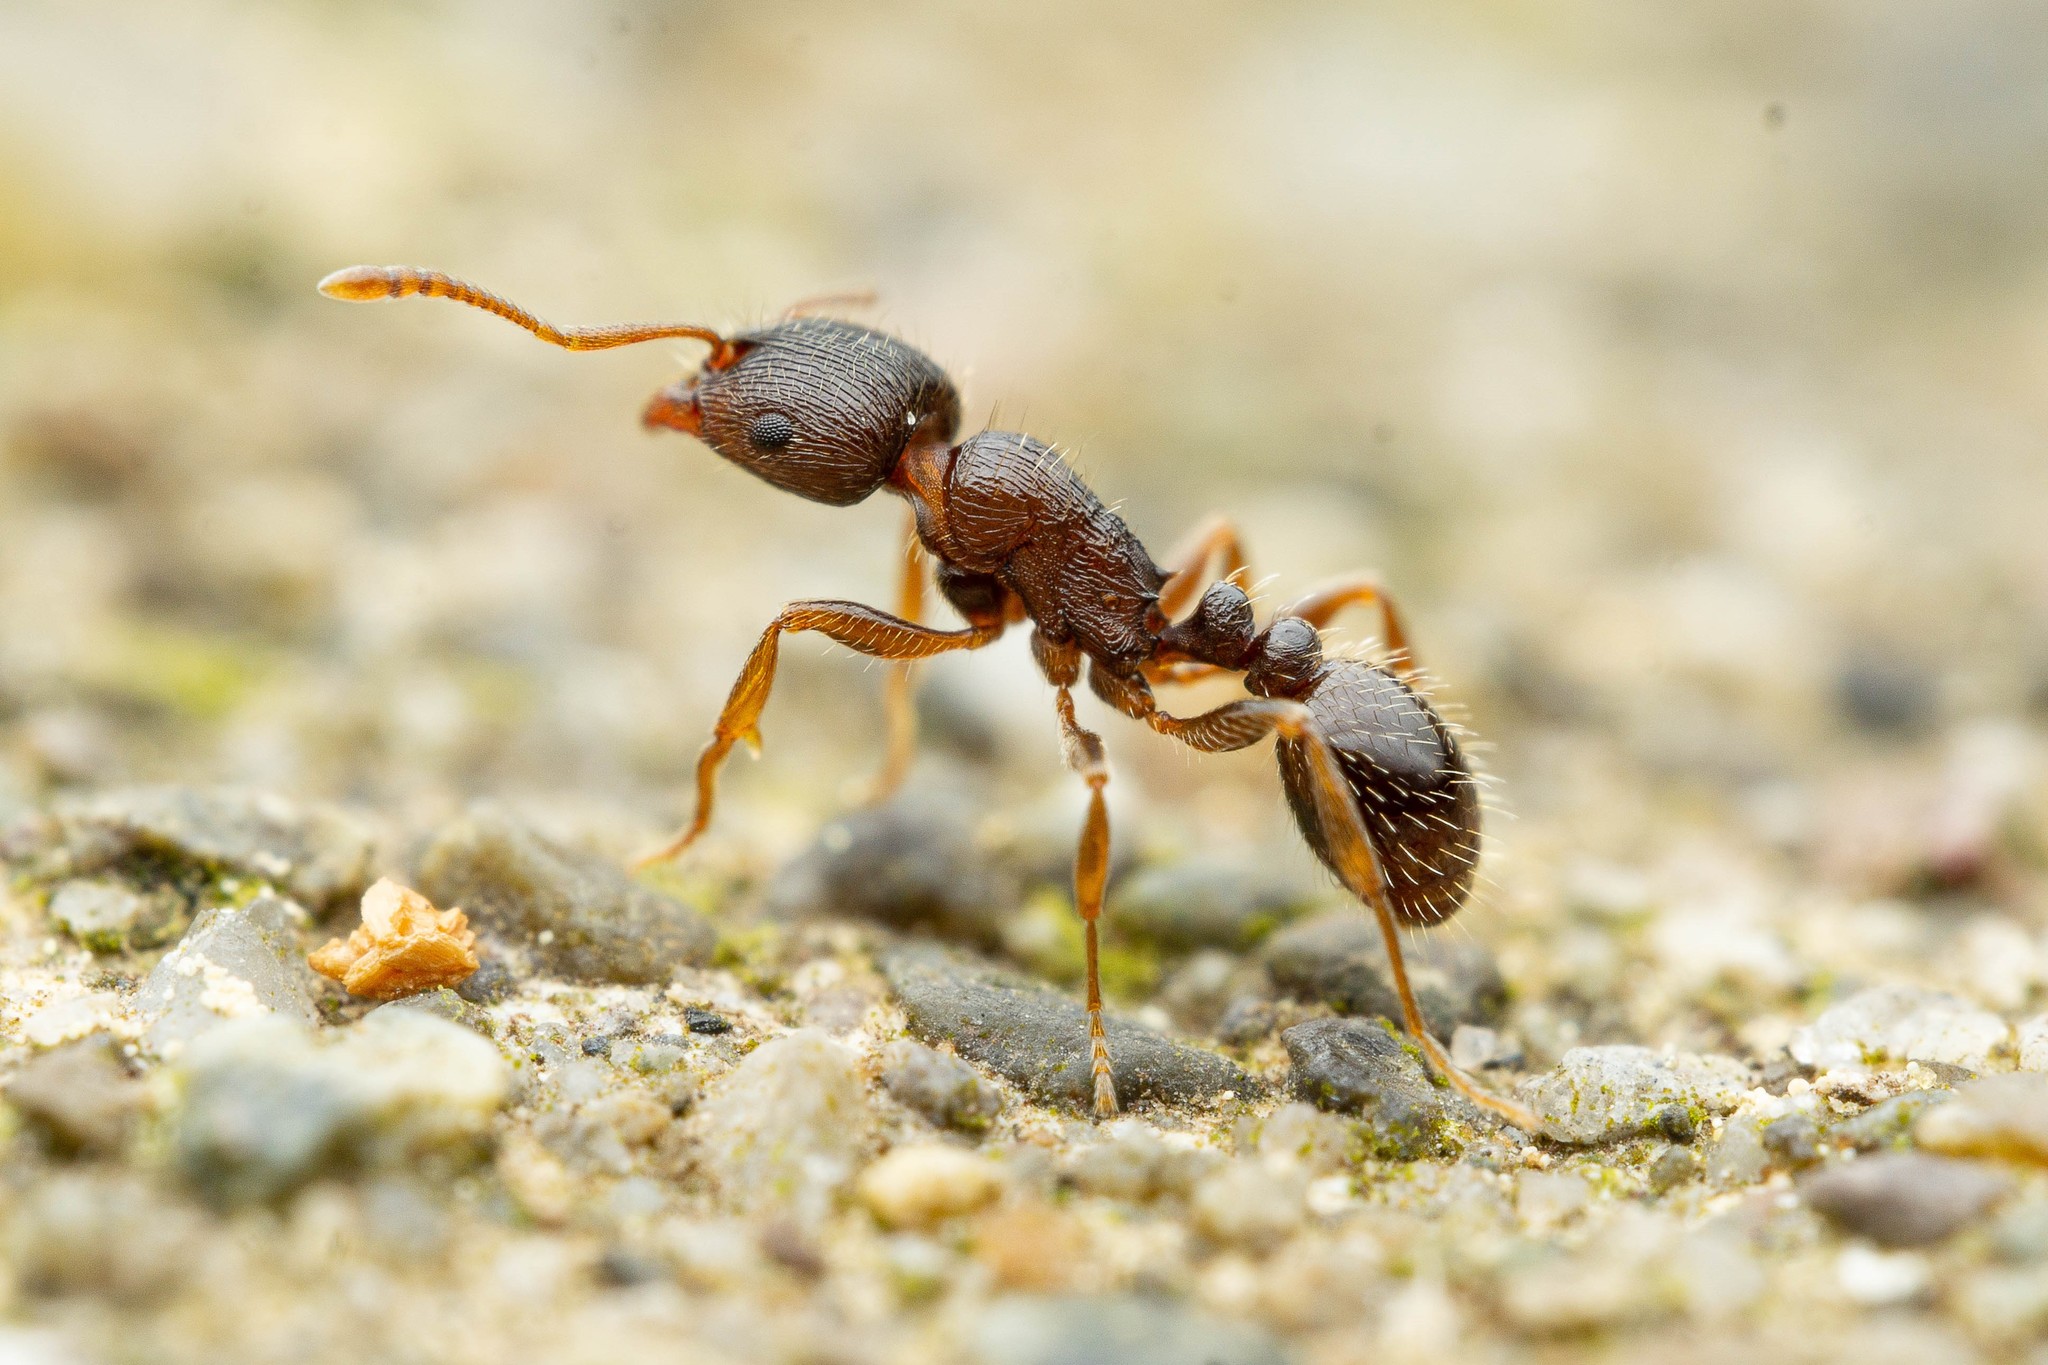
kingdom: Animalia
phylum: Arthropoda
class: Insecta
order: Hymenoptera
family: Formicidae
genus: Tetramorium
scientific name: Tetramorium immigrans
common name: Pavement ant
